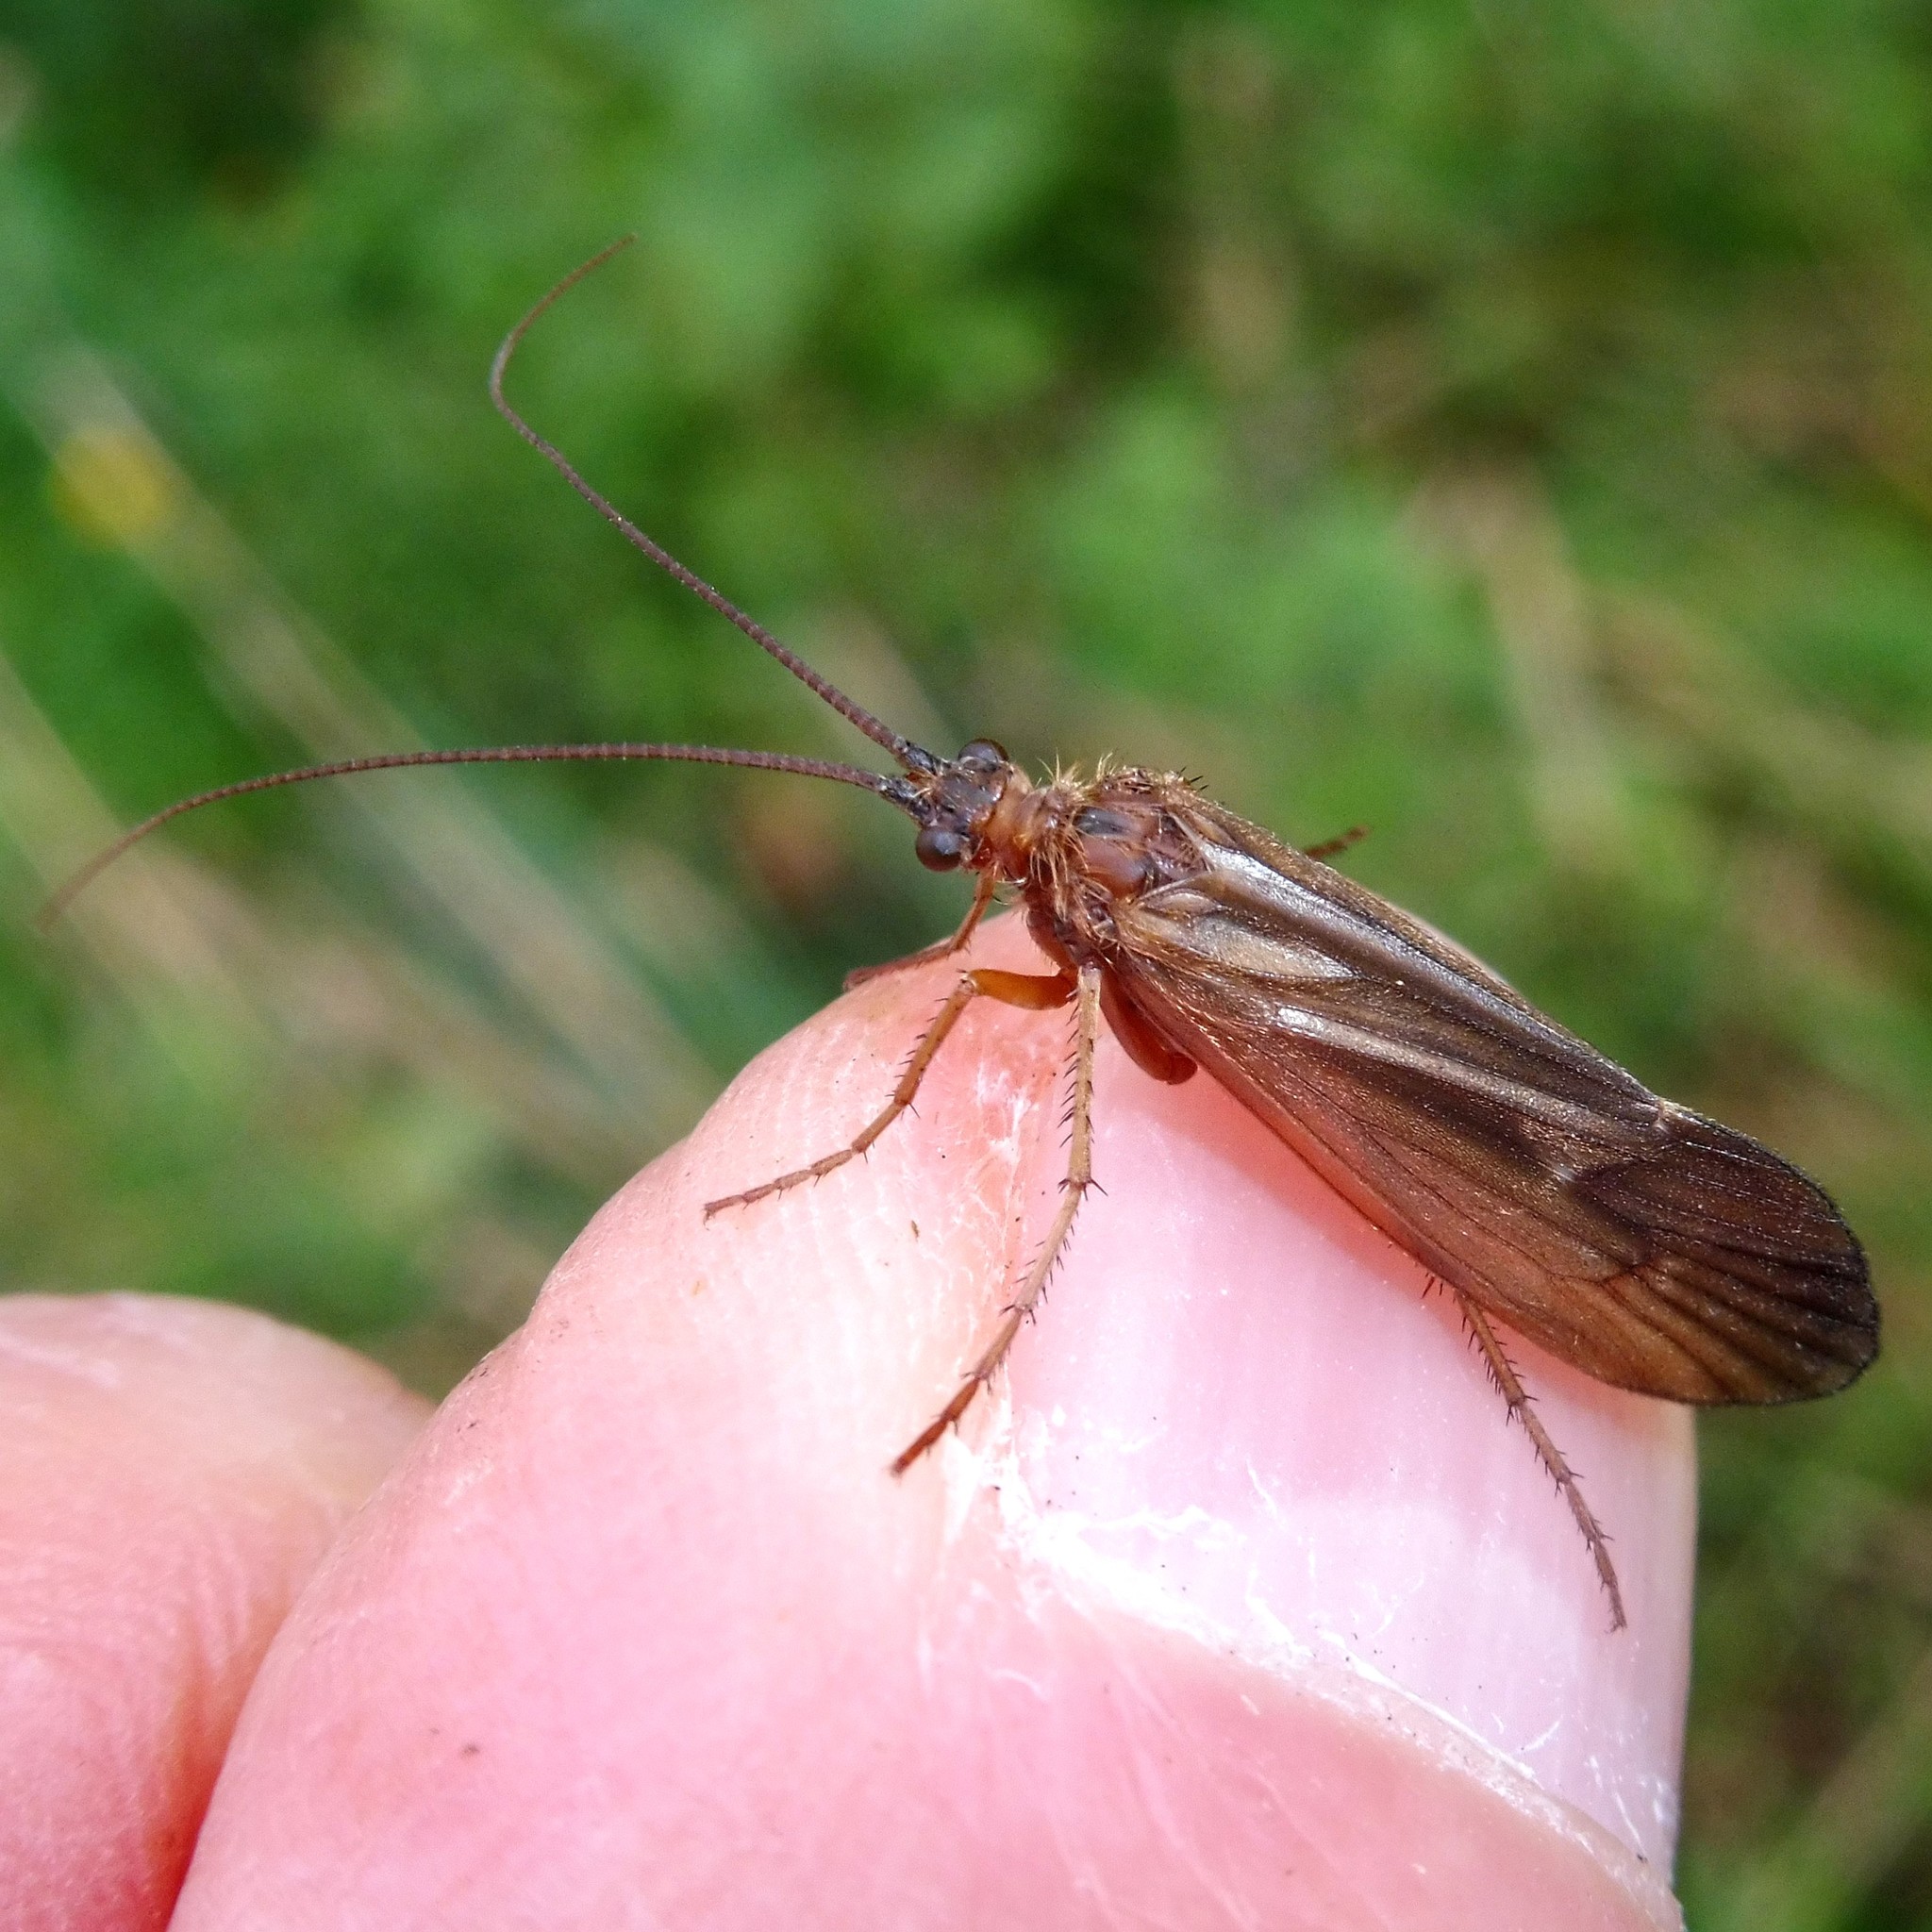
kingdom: Animalia
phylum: Arthropoda
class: Insecta
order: Trichoptera
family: Limnephilidae
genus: Anabolia
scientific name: Anabolia nervosa
